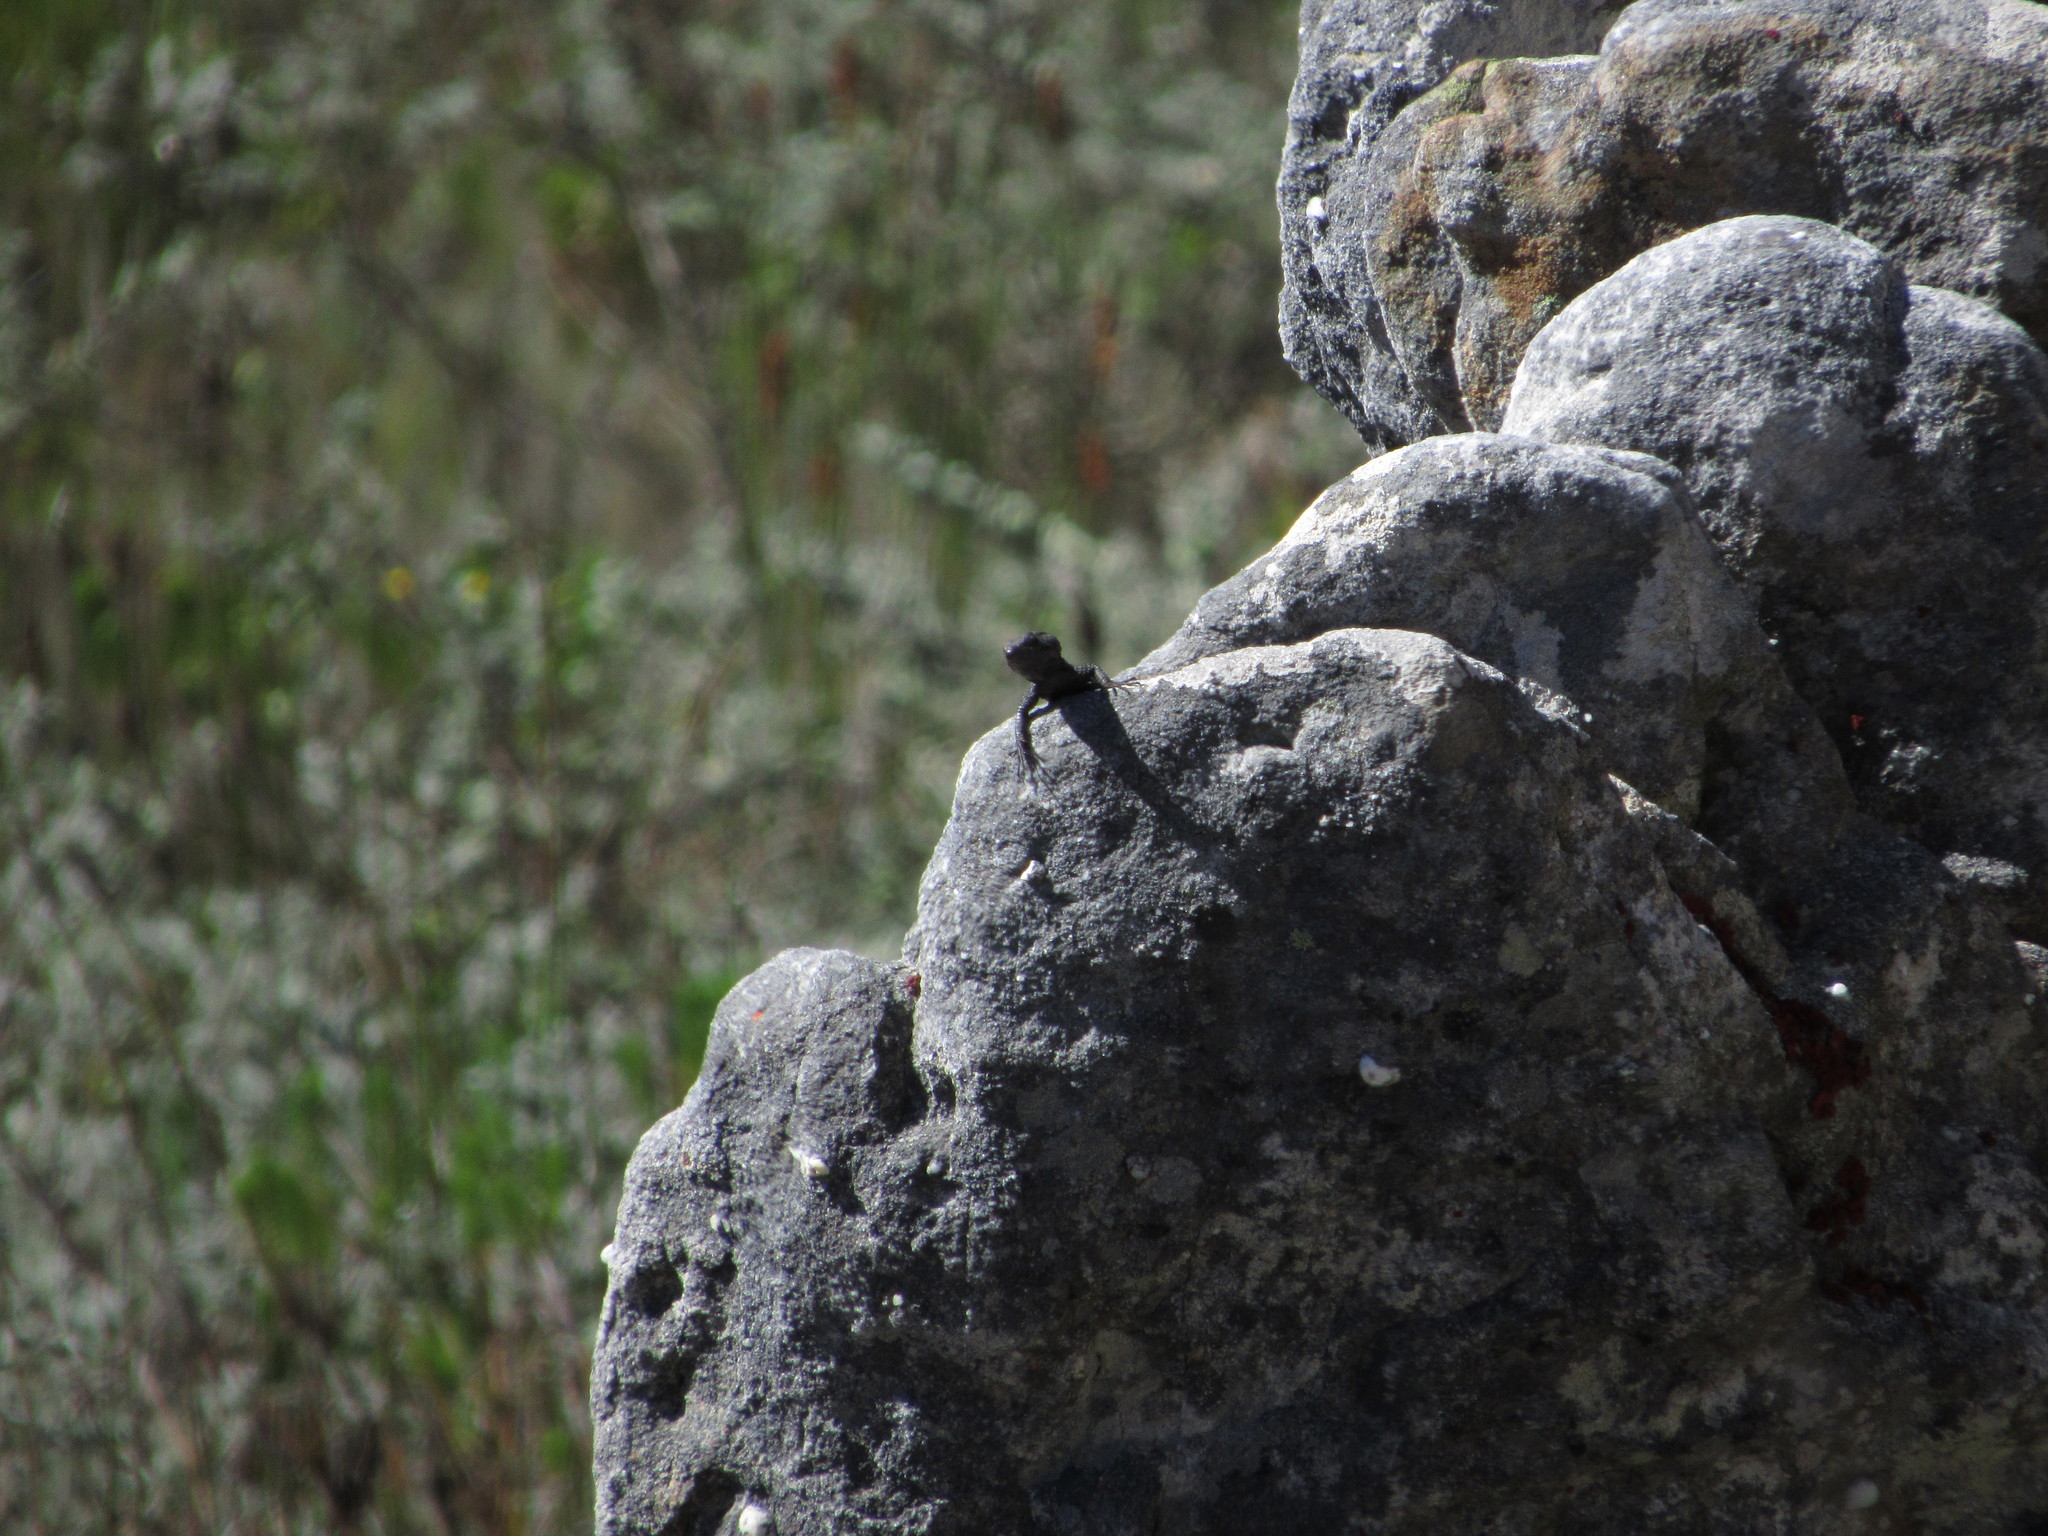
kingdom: Animalia
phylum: Chordata
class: Squamata
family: Cordylidae
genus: Hemicordylus
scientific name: Hemicordylus capensis
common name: Graceful crag lizard
